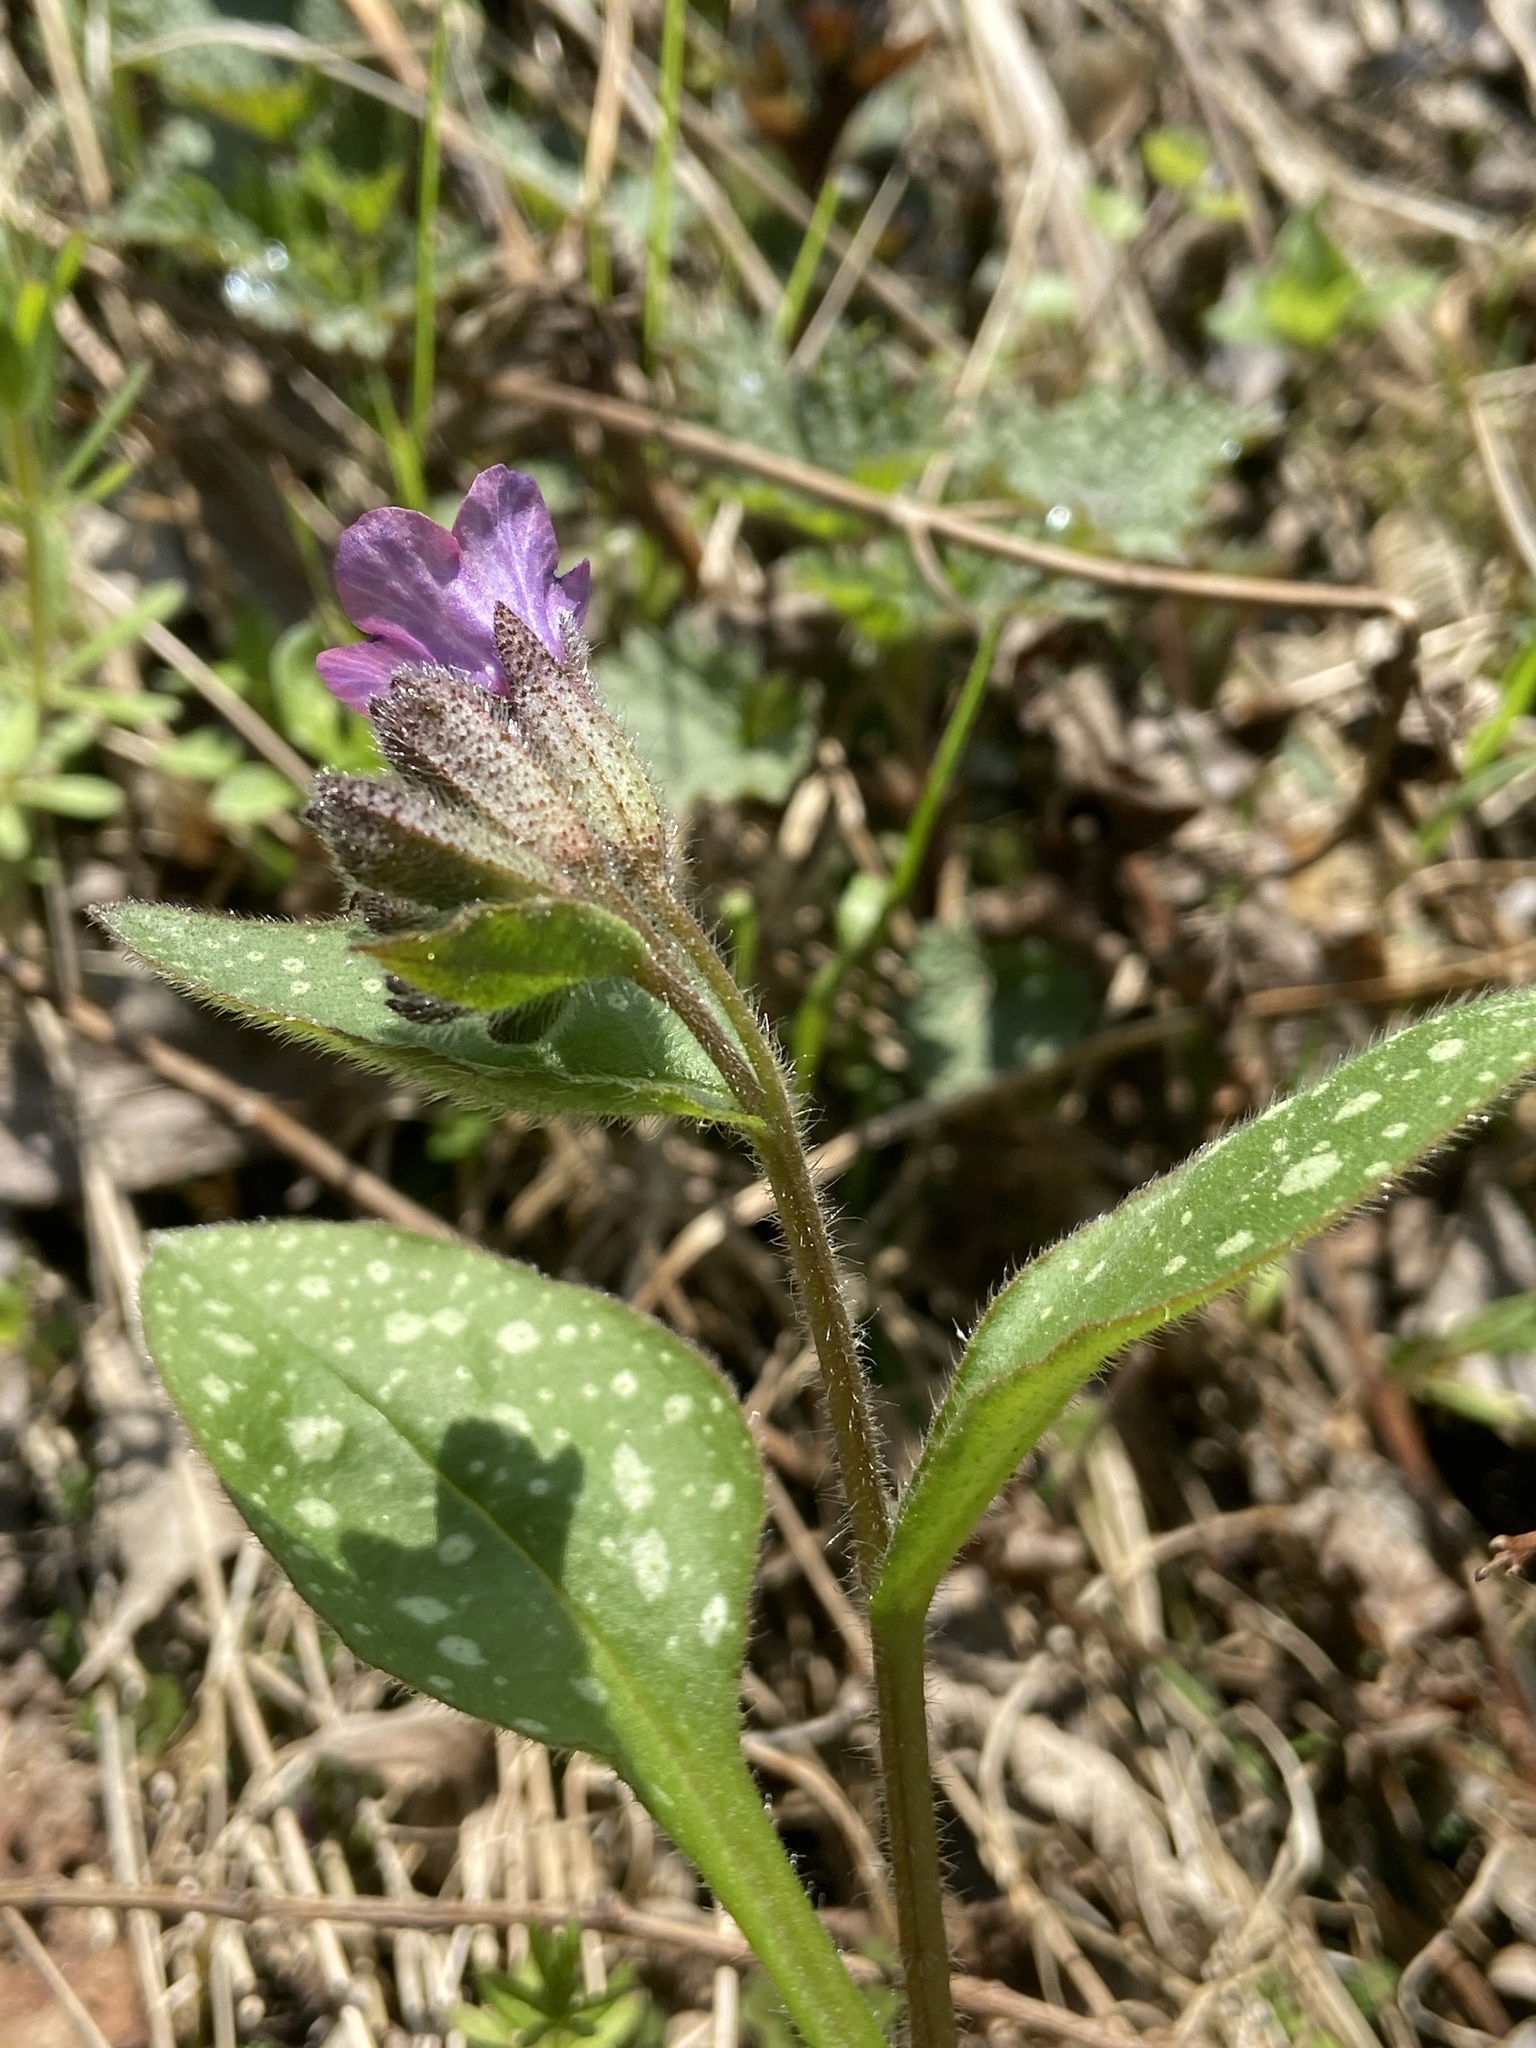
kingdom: Plantae
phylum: Tracheophyta
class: Magnoliopsida
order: Boraginales
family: Boraginaceae
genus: Pulmonaria
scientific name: Pulmonaria officinalis
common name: Lungwort
